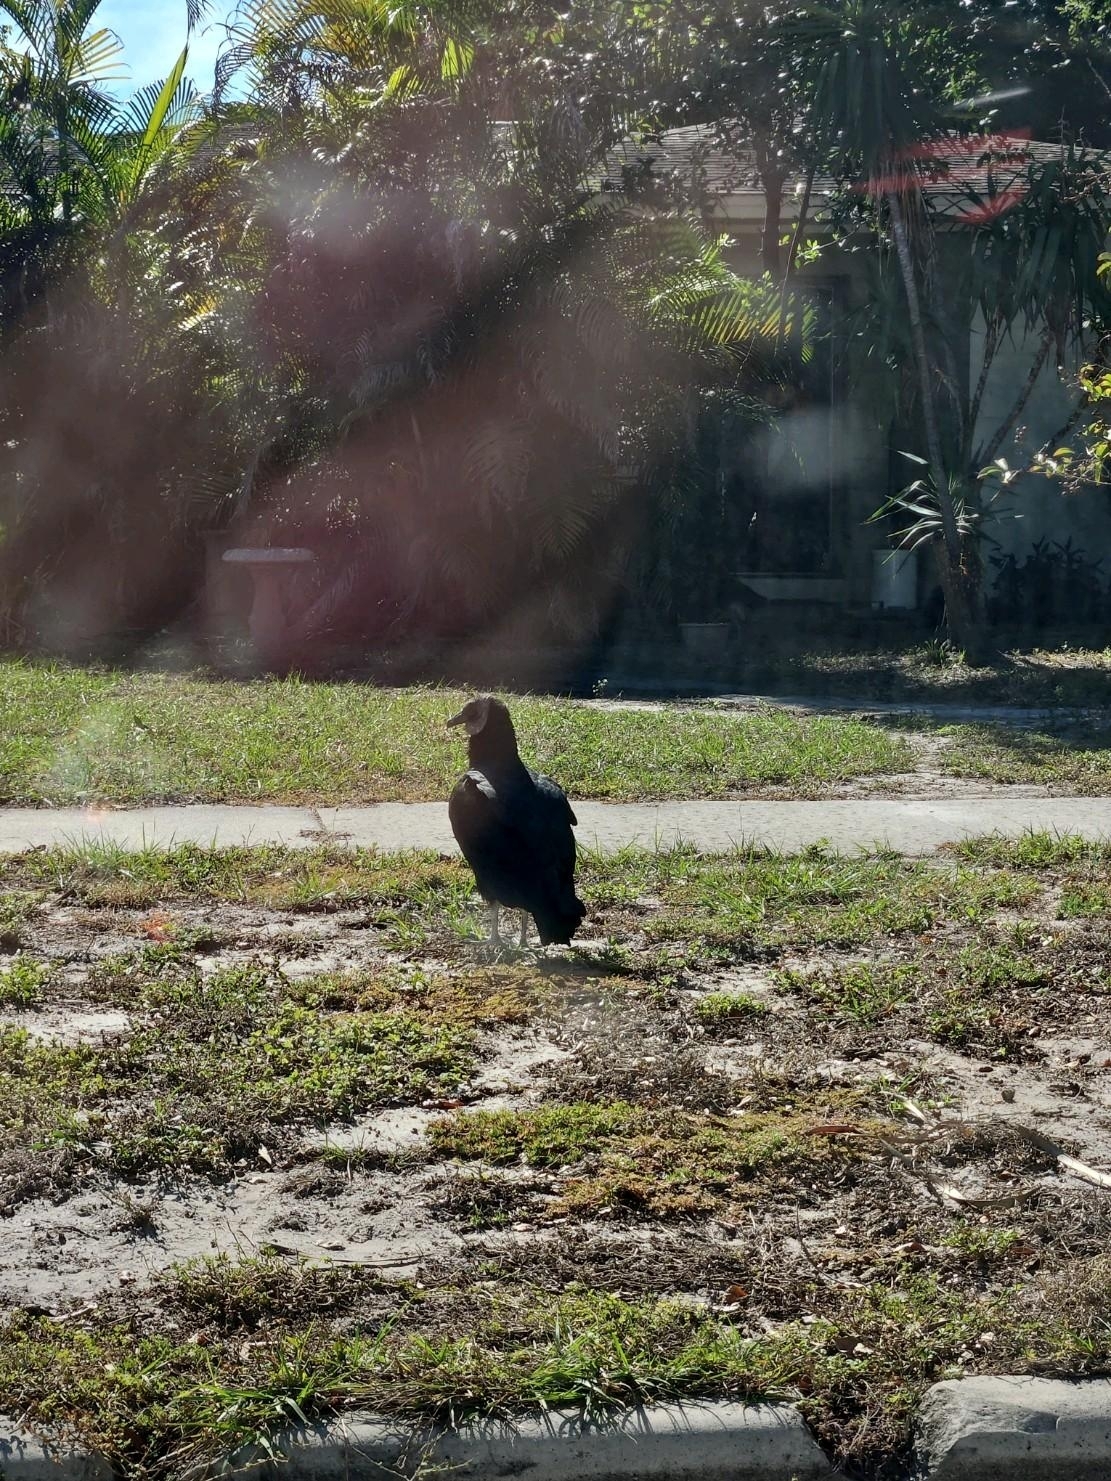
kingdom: Animalia
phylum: Chordata
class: Aves
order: Accipitriformes
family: Cathartidae
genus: Coragyps
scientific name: Coragyps atratus
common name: Black vulture
